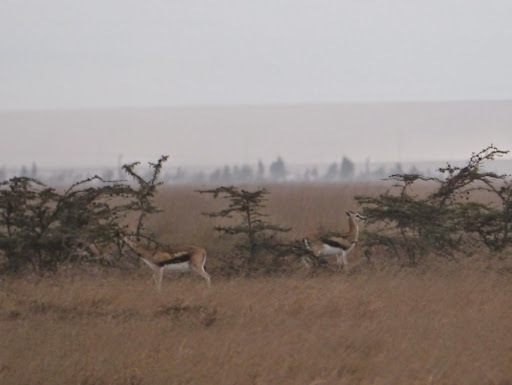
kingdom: Animalia
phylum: Chordata
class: Mammalia
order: Artiodactyla
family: Bovidae
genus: Eudorcas
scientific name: Eudorcas thomsonii
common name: Thomson's gazelle
